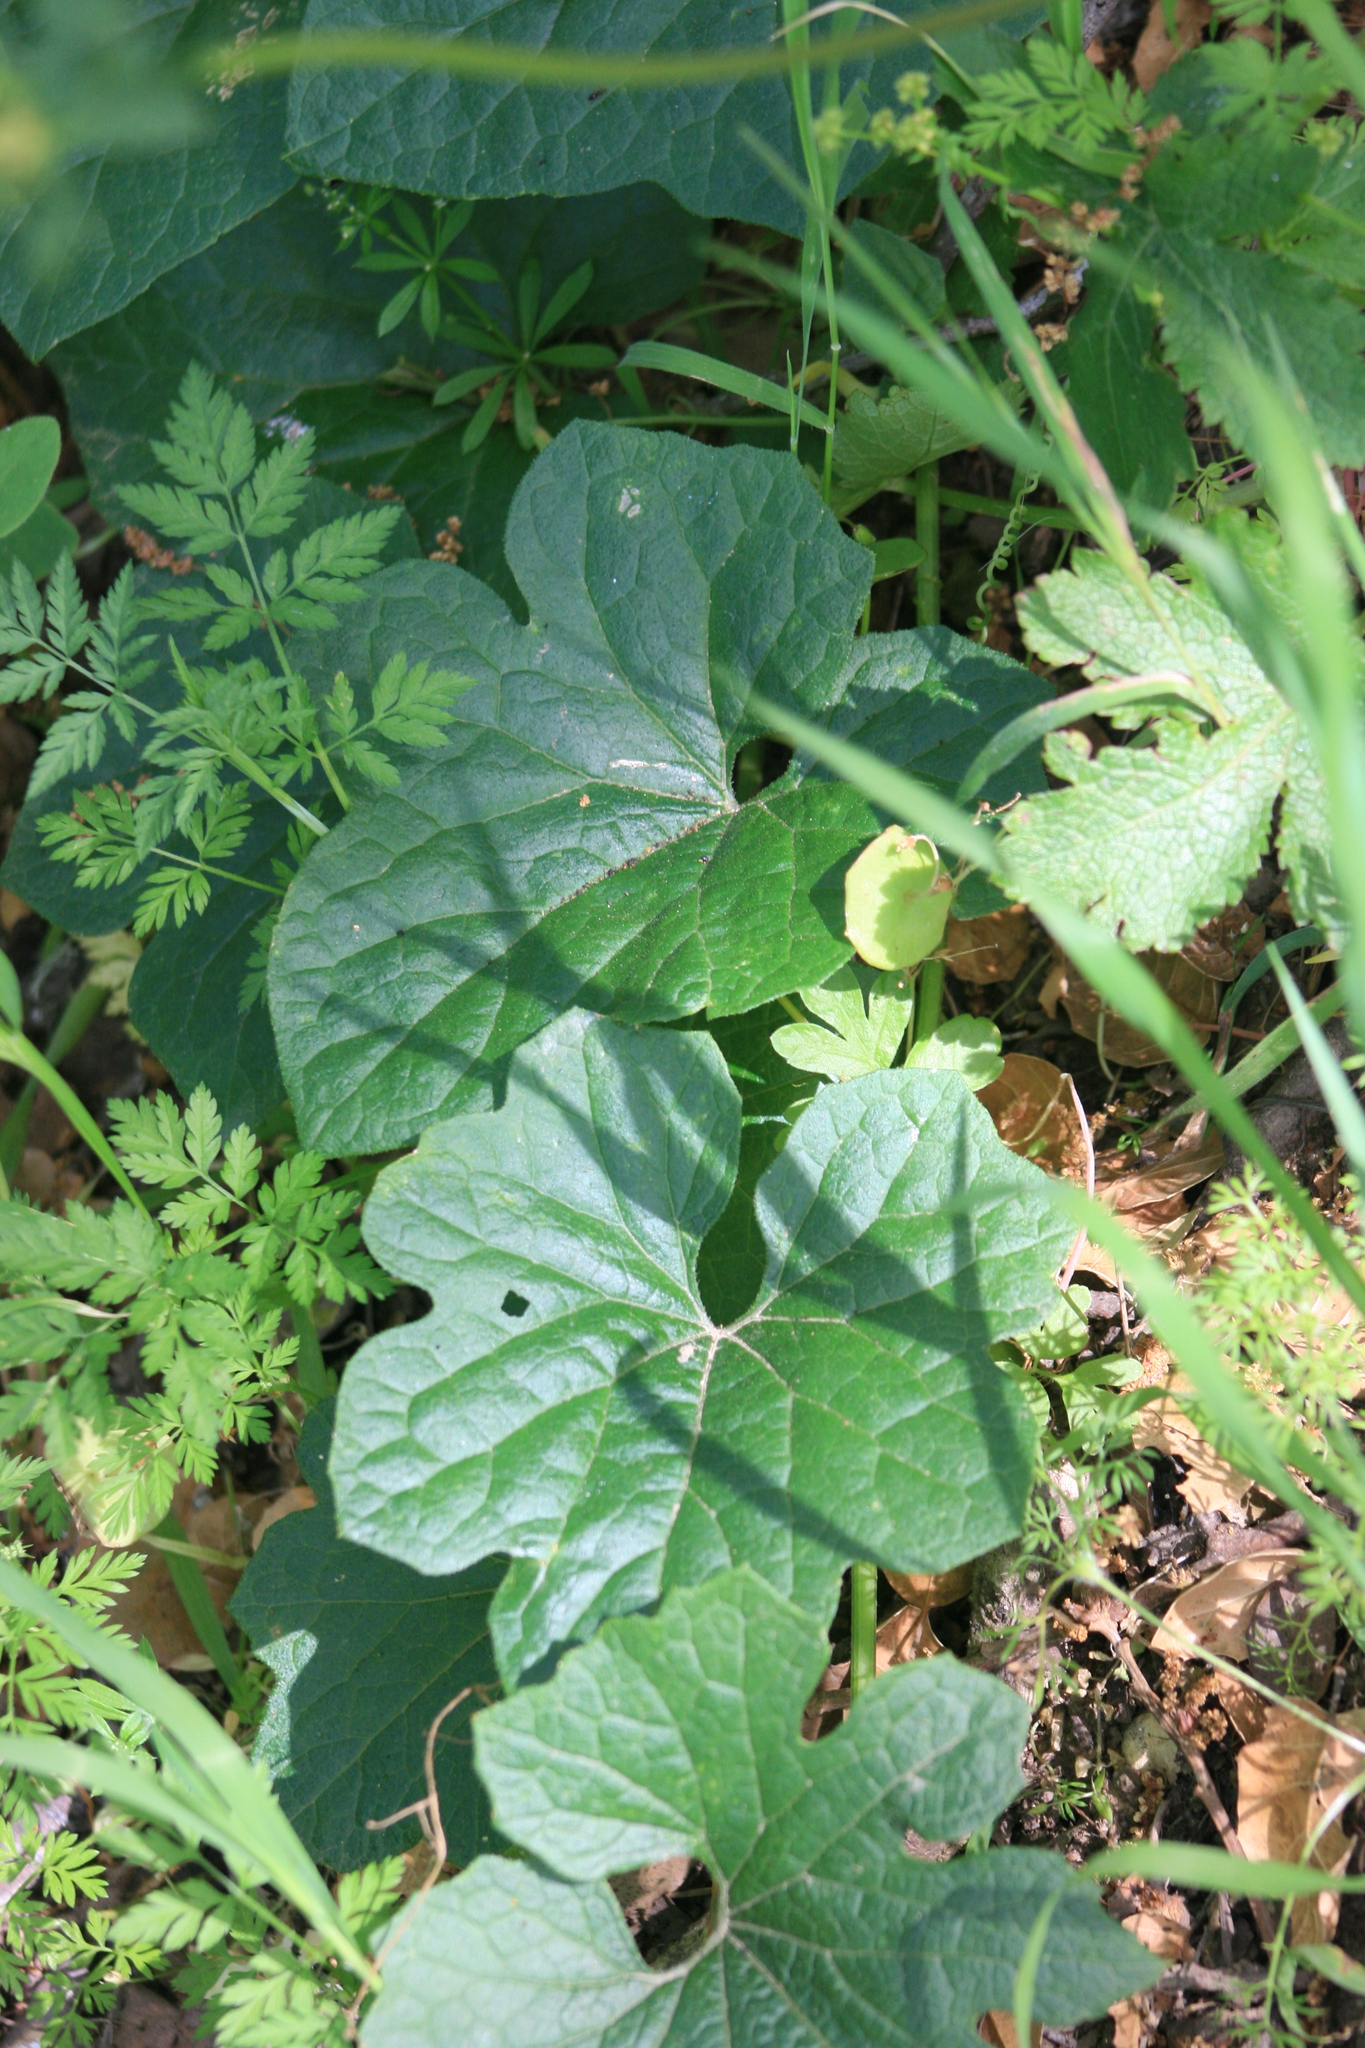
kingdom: Plantae
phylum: Tracheophyta
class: Magnoliopsida
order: Cucurbitales
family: Cucurbitaceae
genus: Marah
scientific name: Marah oregana
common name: Coastal manroot
